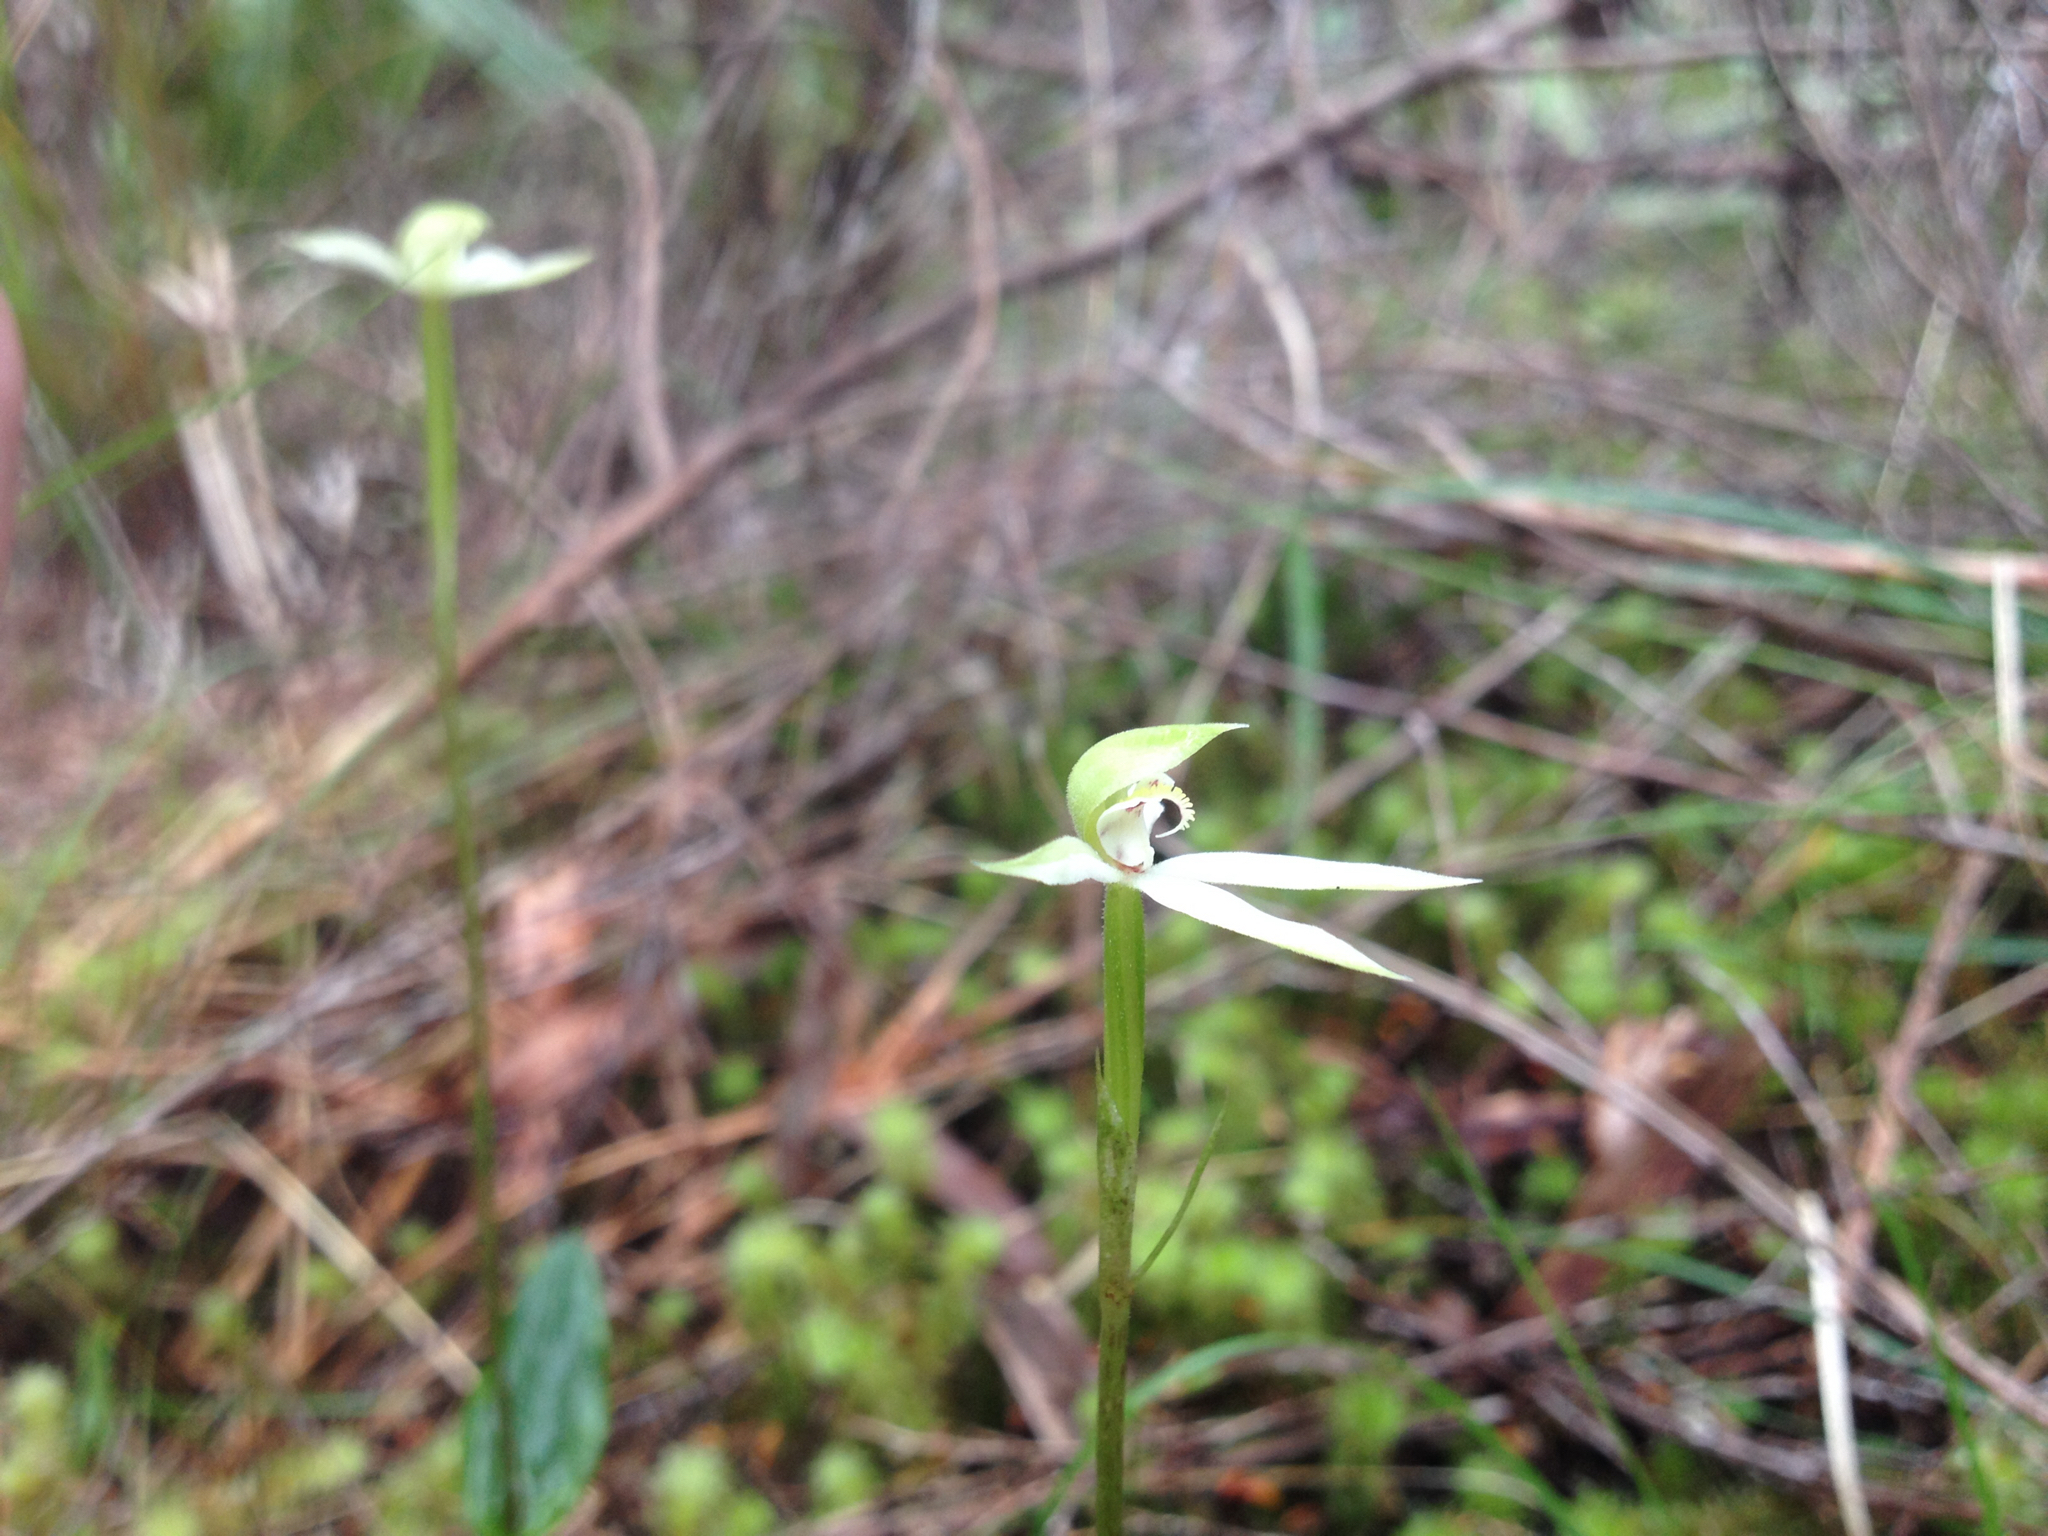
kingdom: Plantae
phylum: Tracheophyta
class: Liliopsida
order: Asparagales
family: Orchidaceae
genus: Adenochilus
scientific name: Adenochilus gracilis
